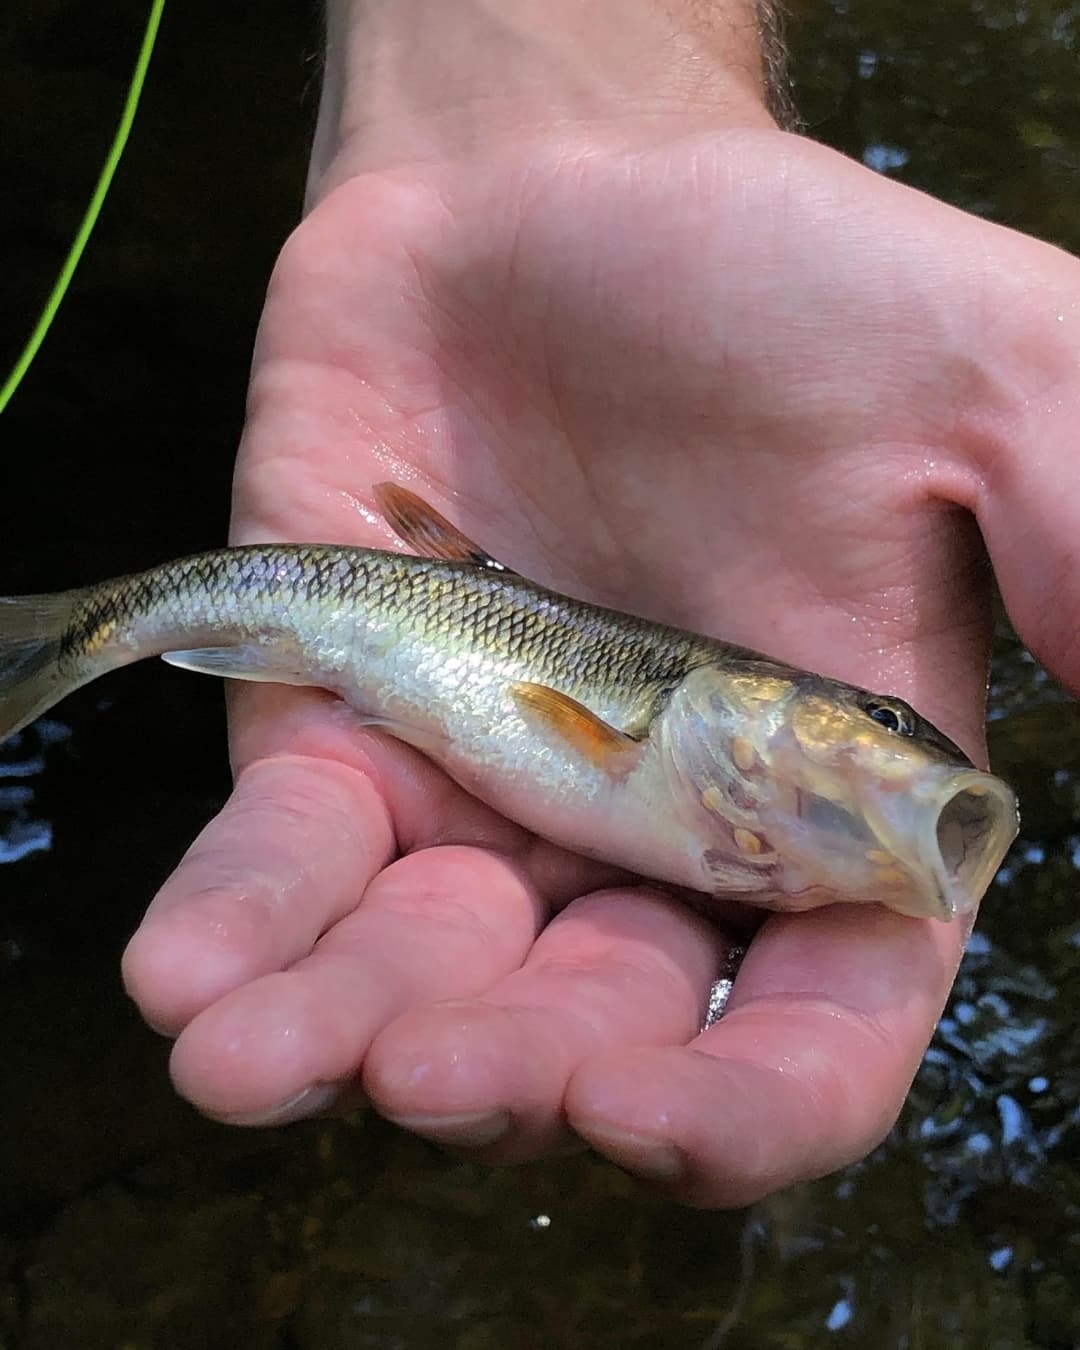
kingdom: Animalia
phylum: Chordata
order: Cypriniformes
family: Cyprinidae
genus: Semotilus
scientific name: Semotilus atromaculatus
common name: Creek chub
